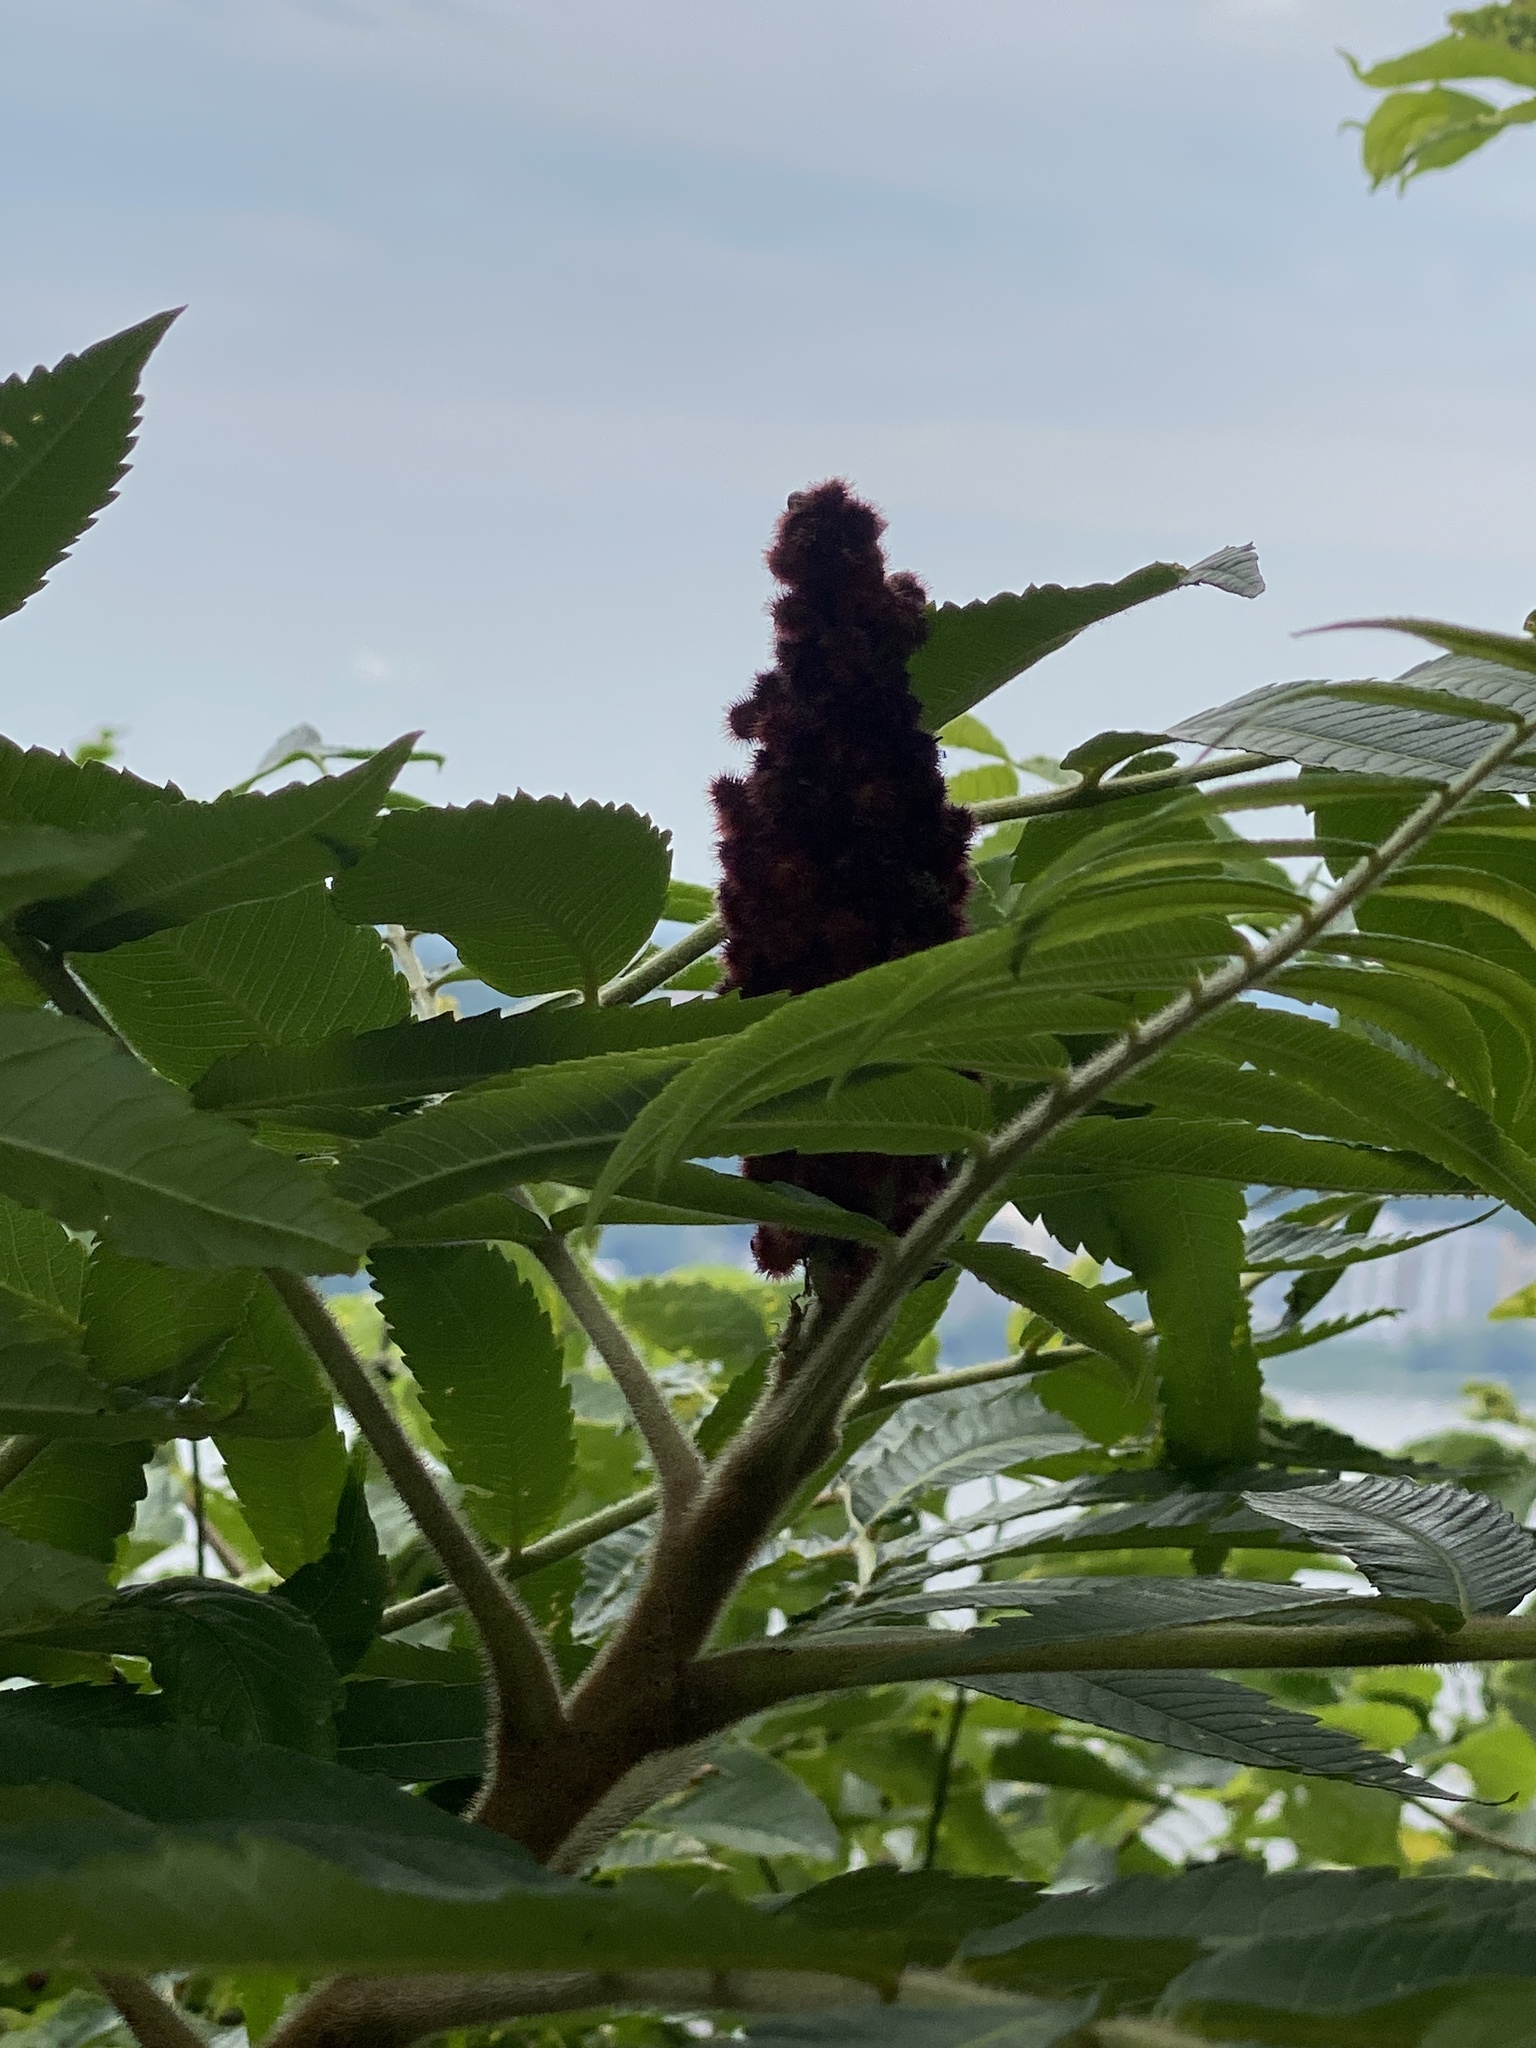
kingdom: Plantae
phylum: Tracheophyta
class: Magnoliopsida
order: Sapindales
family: Anacardiaceae
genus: Rhus
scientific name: Rhus typhina
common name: Staghorn sumac
